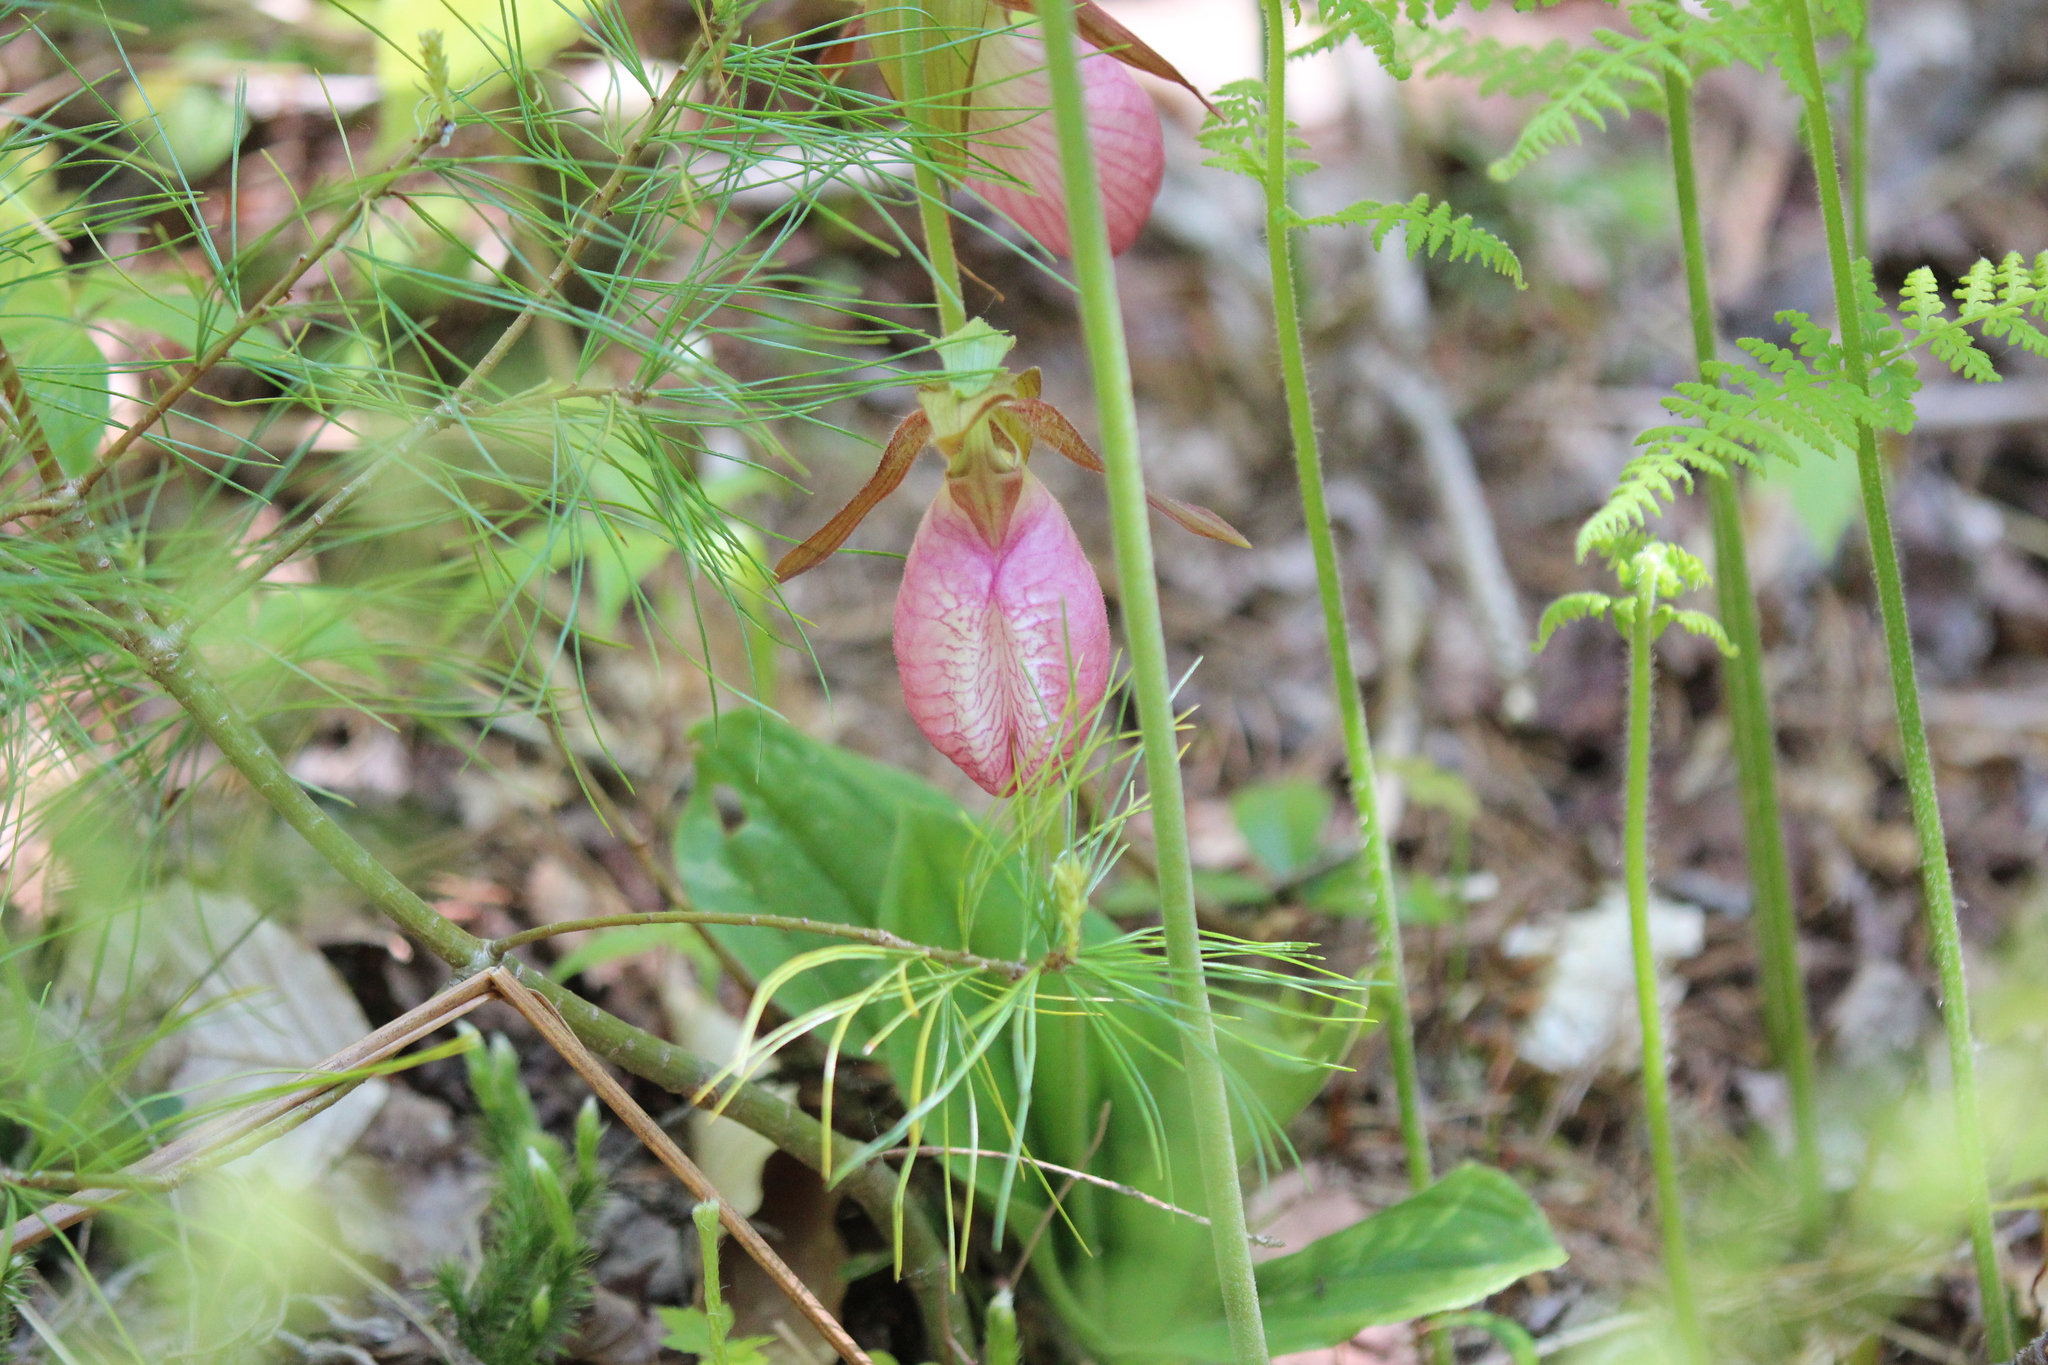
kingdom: Plantae
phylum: Tracheophyta
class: Liliopsida
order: Asparagales
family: Orchidaceae
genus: Cypripedium
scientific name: Cypripedium acaule
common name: Pink lady's-slipper
